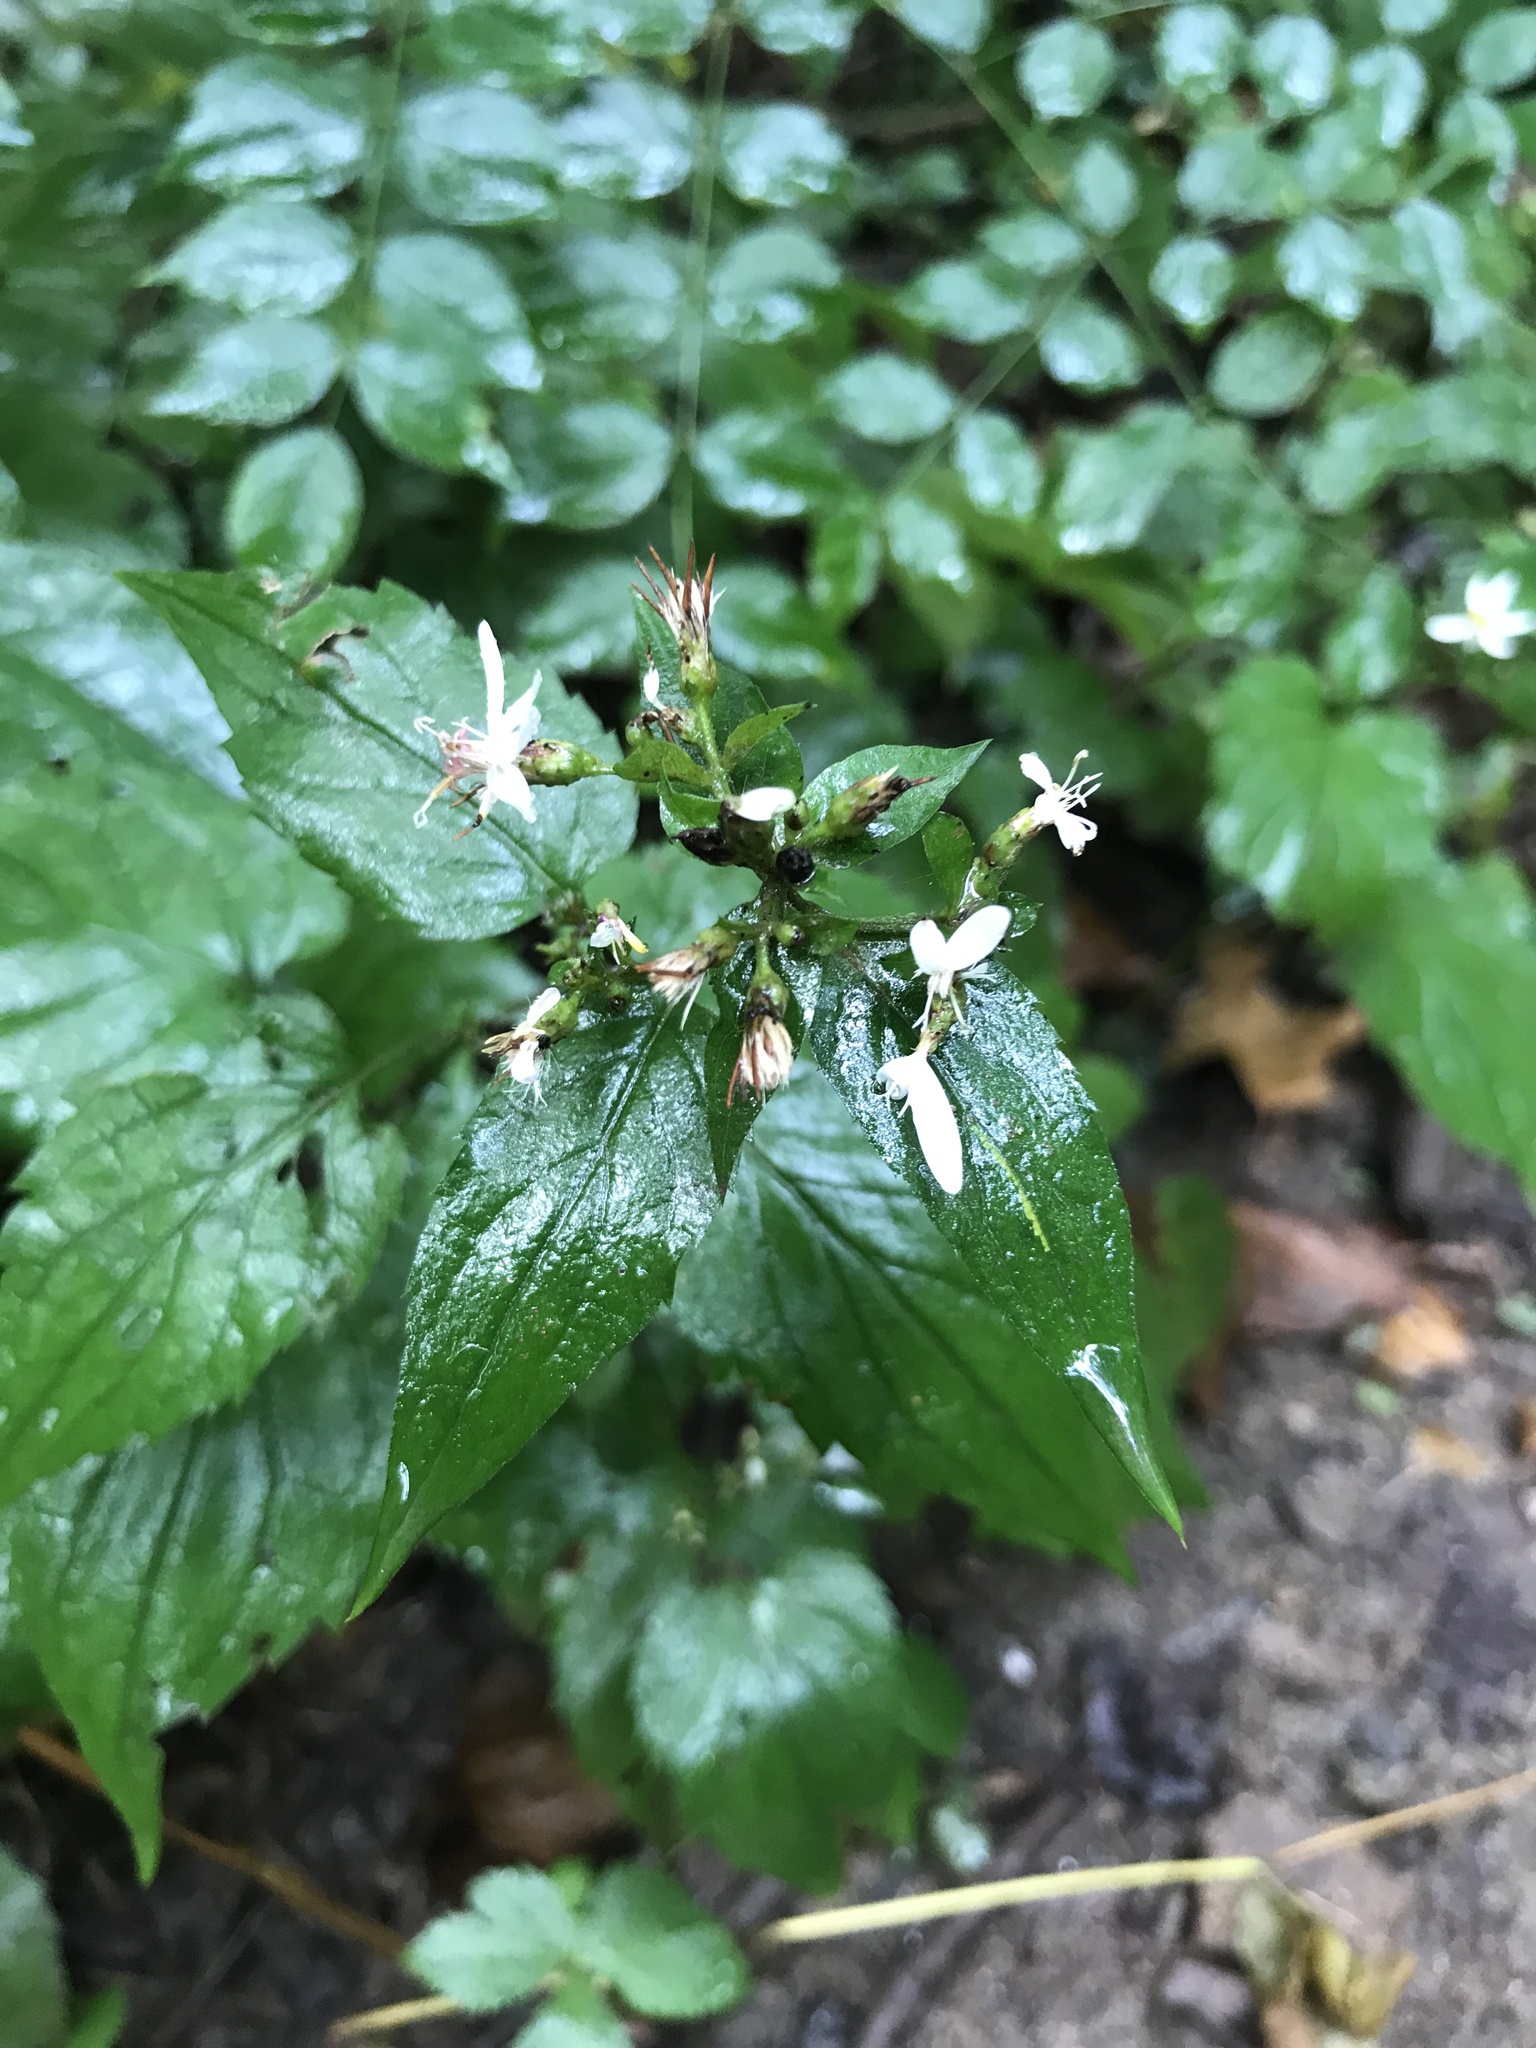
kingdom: Plantae
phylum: Tracheophyta
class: Magnoliopsida
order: Asterales
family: Asteraceae
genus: Eurybia
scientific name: Eurybia divaricata
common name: White wood aster
